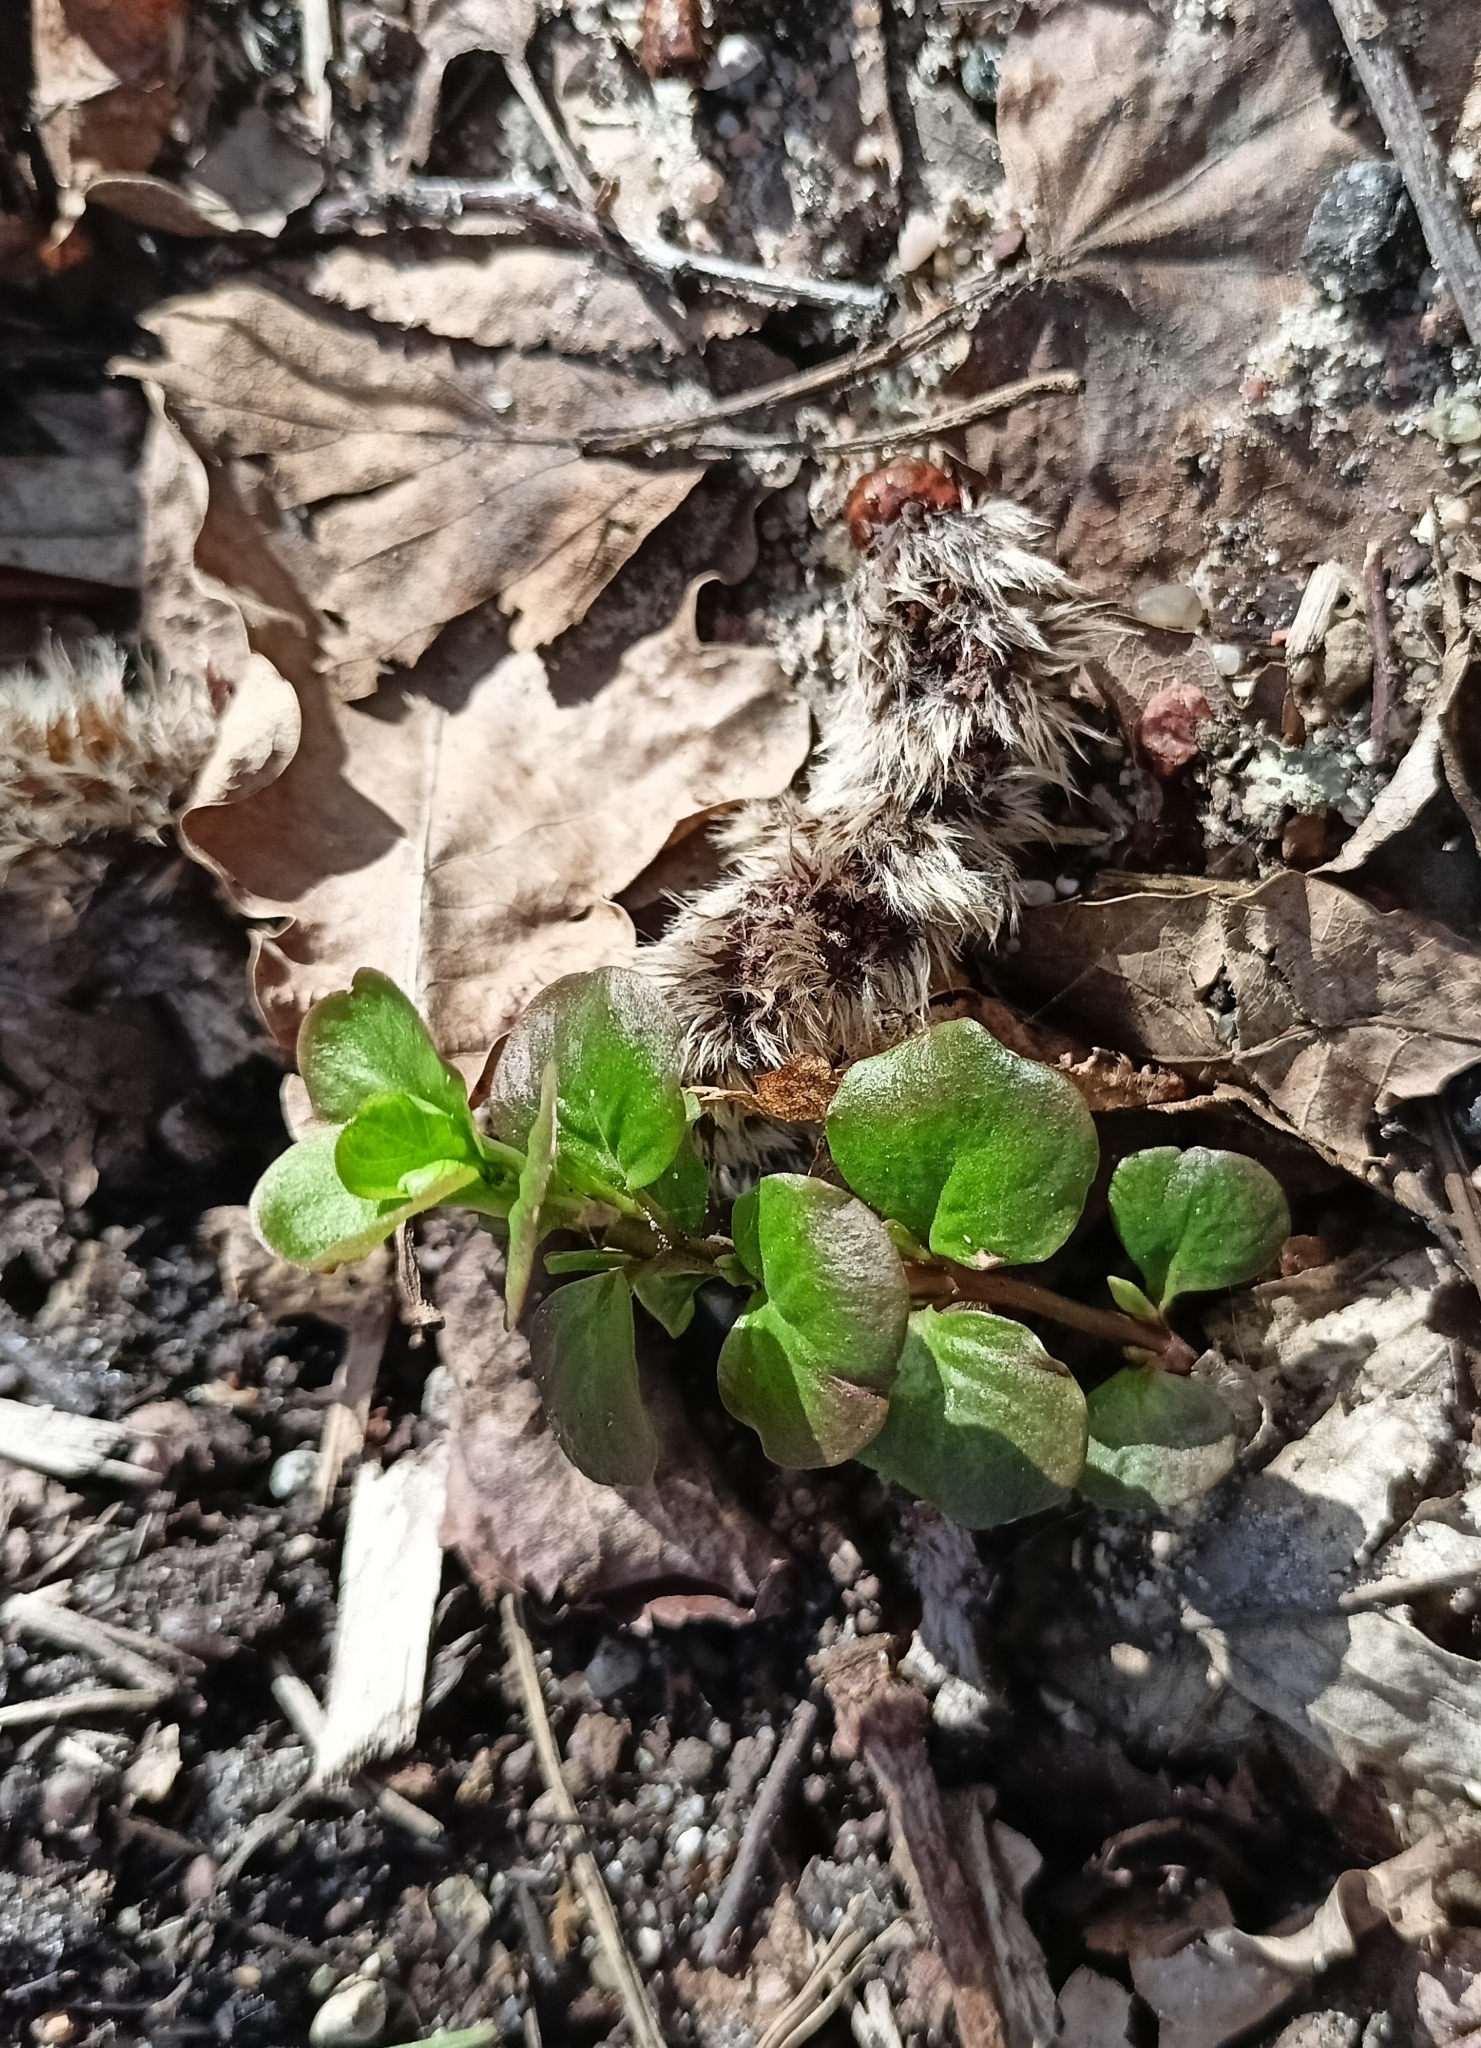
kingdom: Plantae
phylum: Tracheophyta
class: Magnoliopsida
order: Ericales
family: Primulaceae
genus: Lysimachia
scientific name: Lysimachia nummularia
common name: Moneywort
